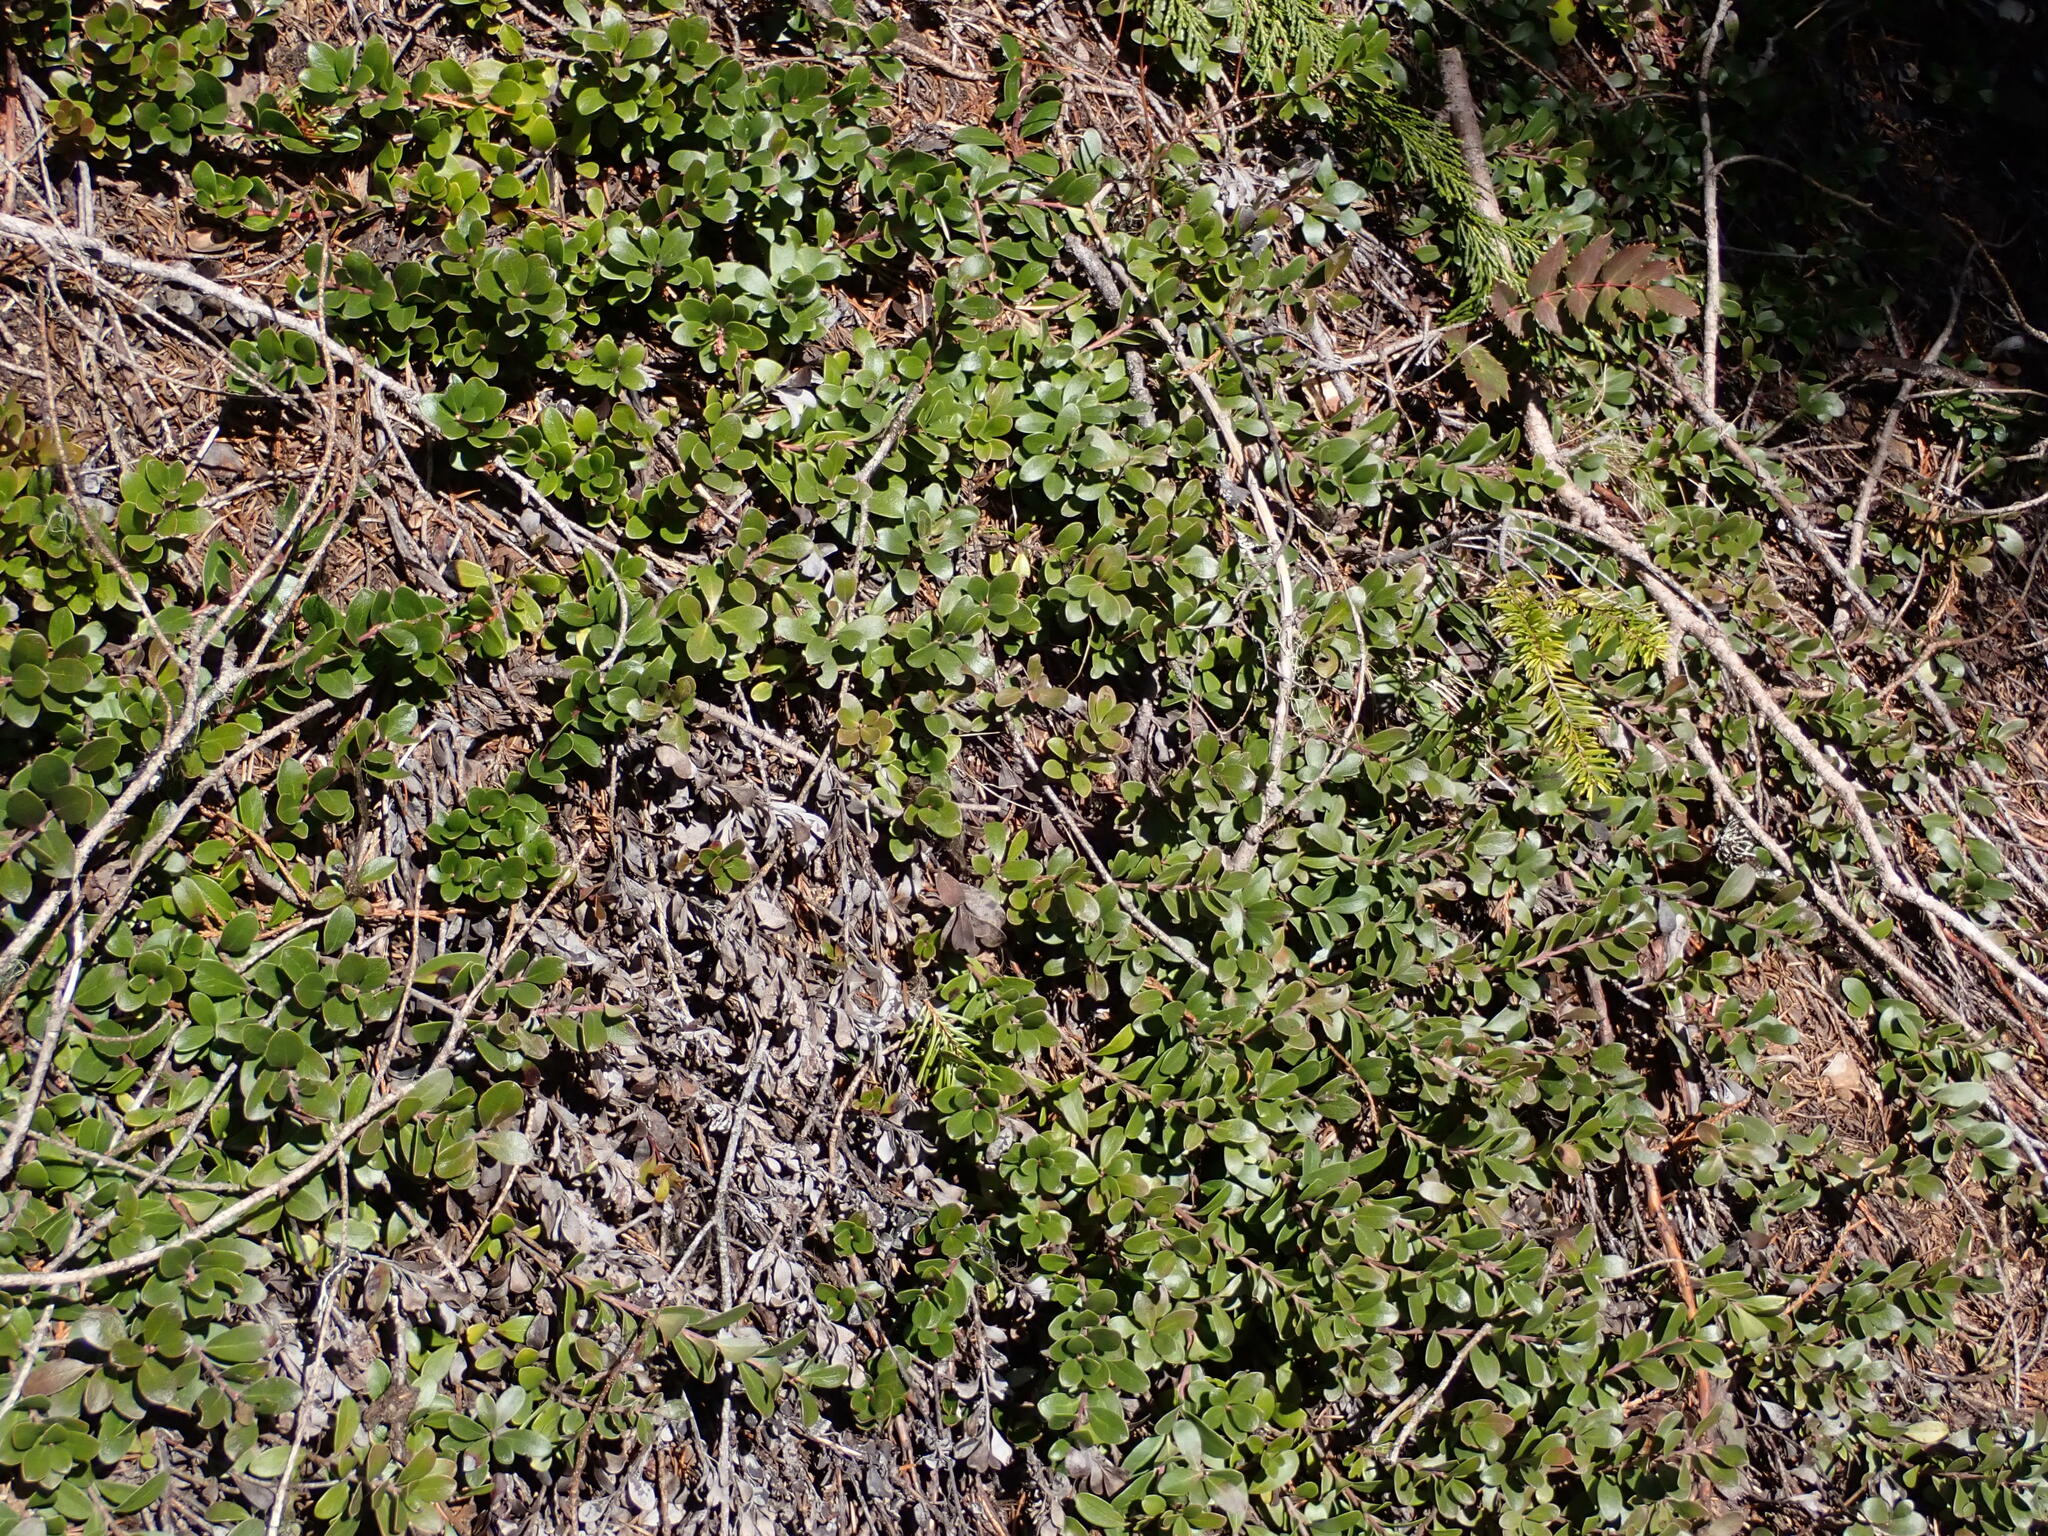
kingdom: Plantae
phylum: Tracheophyta
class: Magnoliopsida
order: Ericales
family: Ericaceae
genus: Arctostaphylos
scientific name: Arctostaphylos uva-ursi
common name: Bearberry
